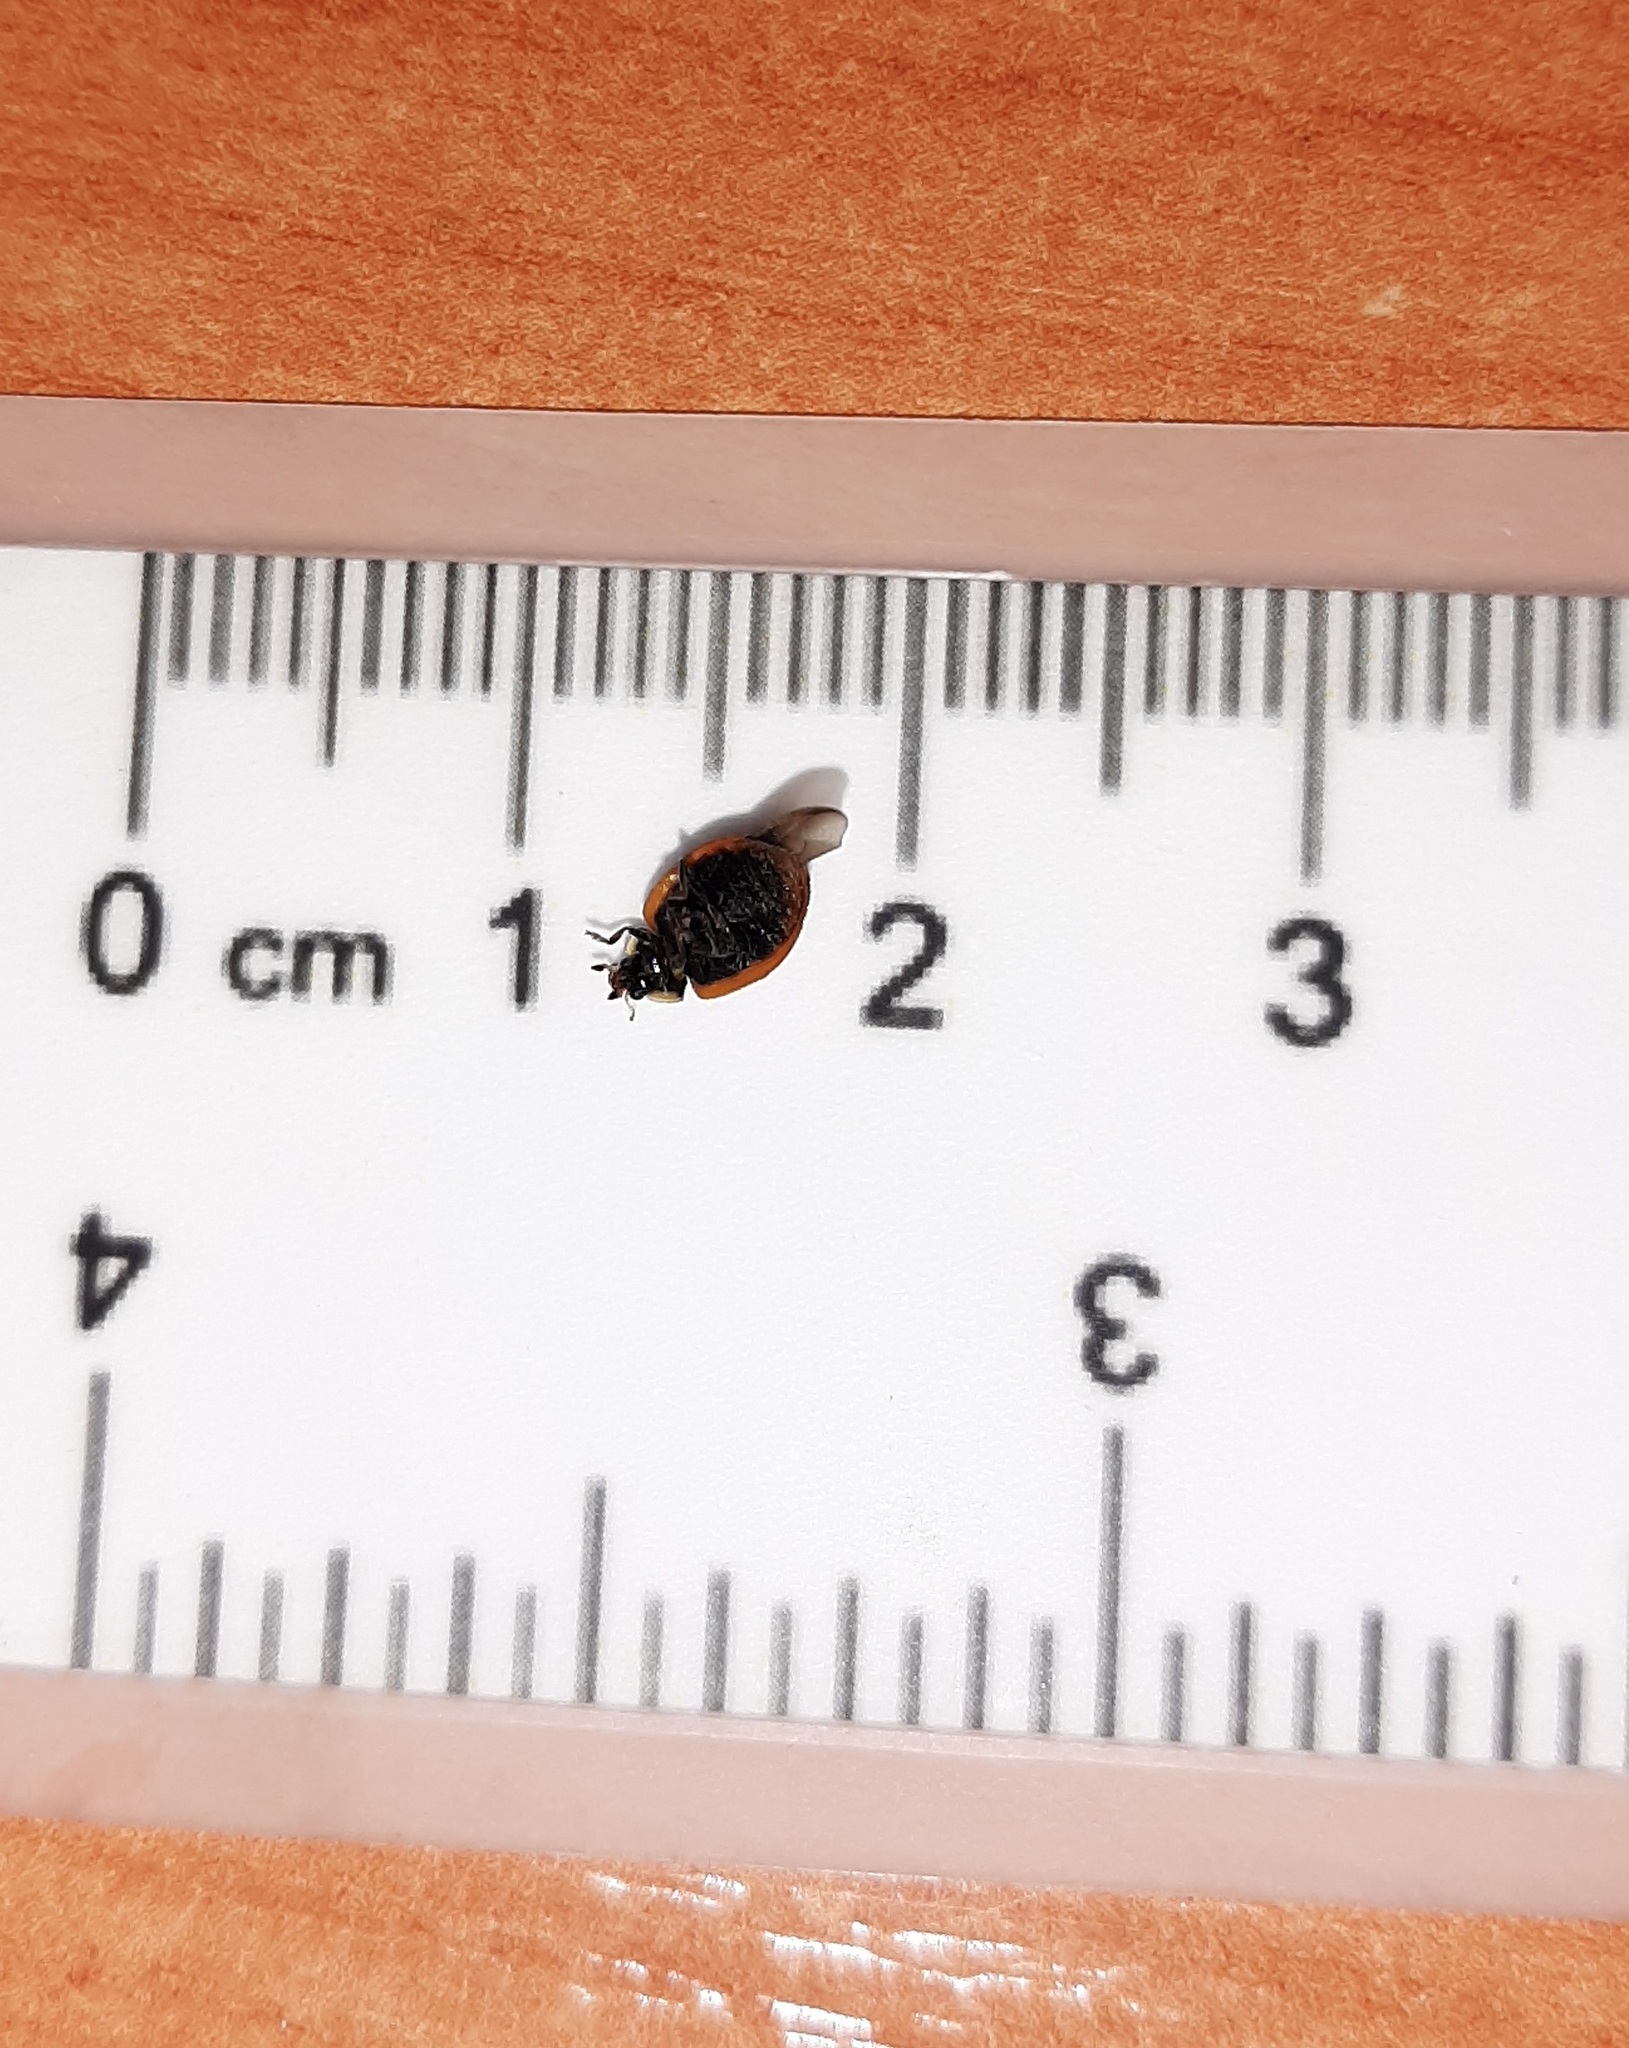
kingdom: Animalia
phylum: Arthropoda
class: Insecta
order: Coleoptera
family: Coccinellidae
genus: Adalia
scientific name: Adalia bipunctata
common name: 2-spot ladybird
